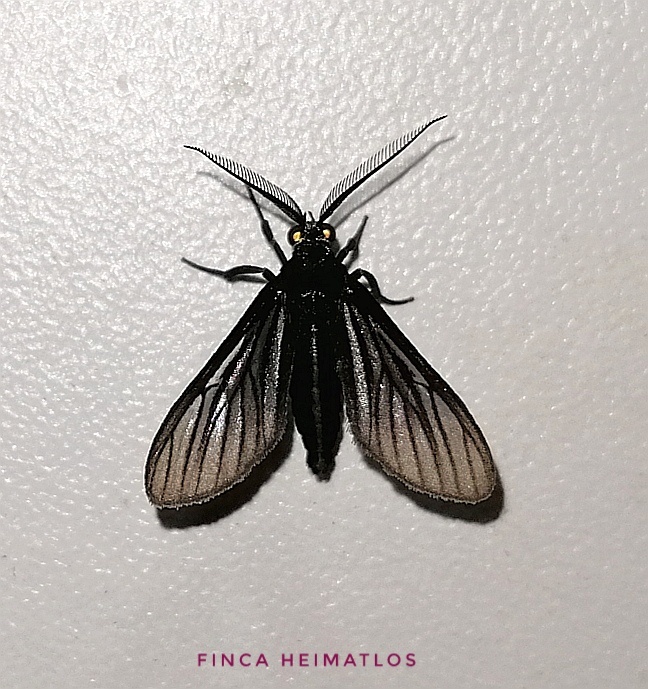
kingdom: Animalia
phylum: Arthropoda
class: Insecta
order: Lepidoptera
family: Erebidae
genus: Saurita
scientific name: Saurita tipulina
